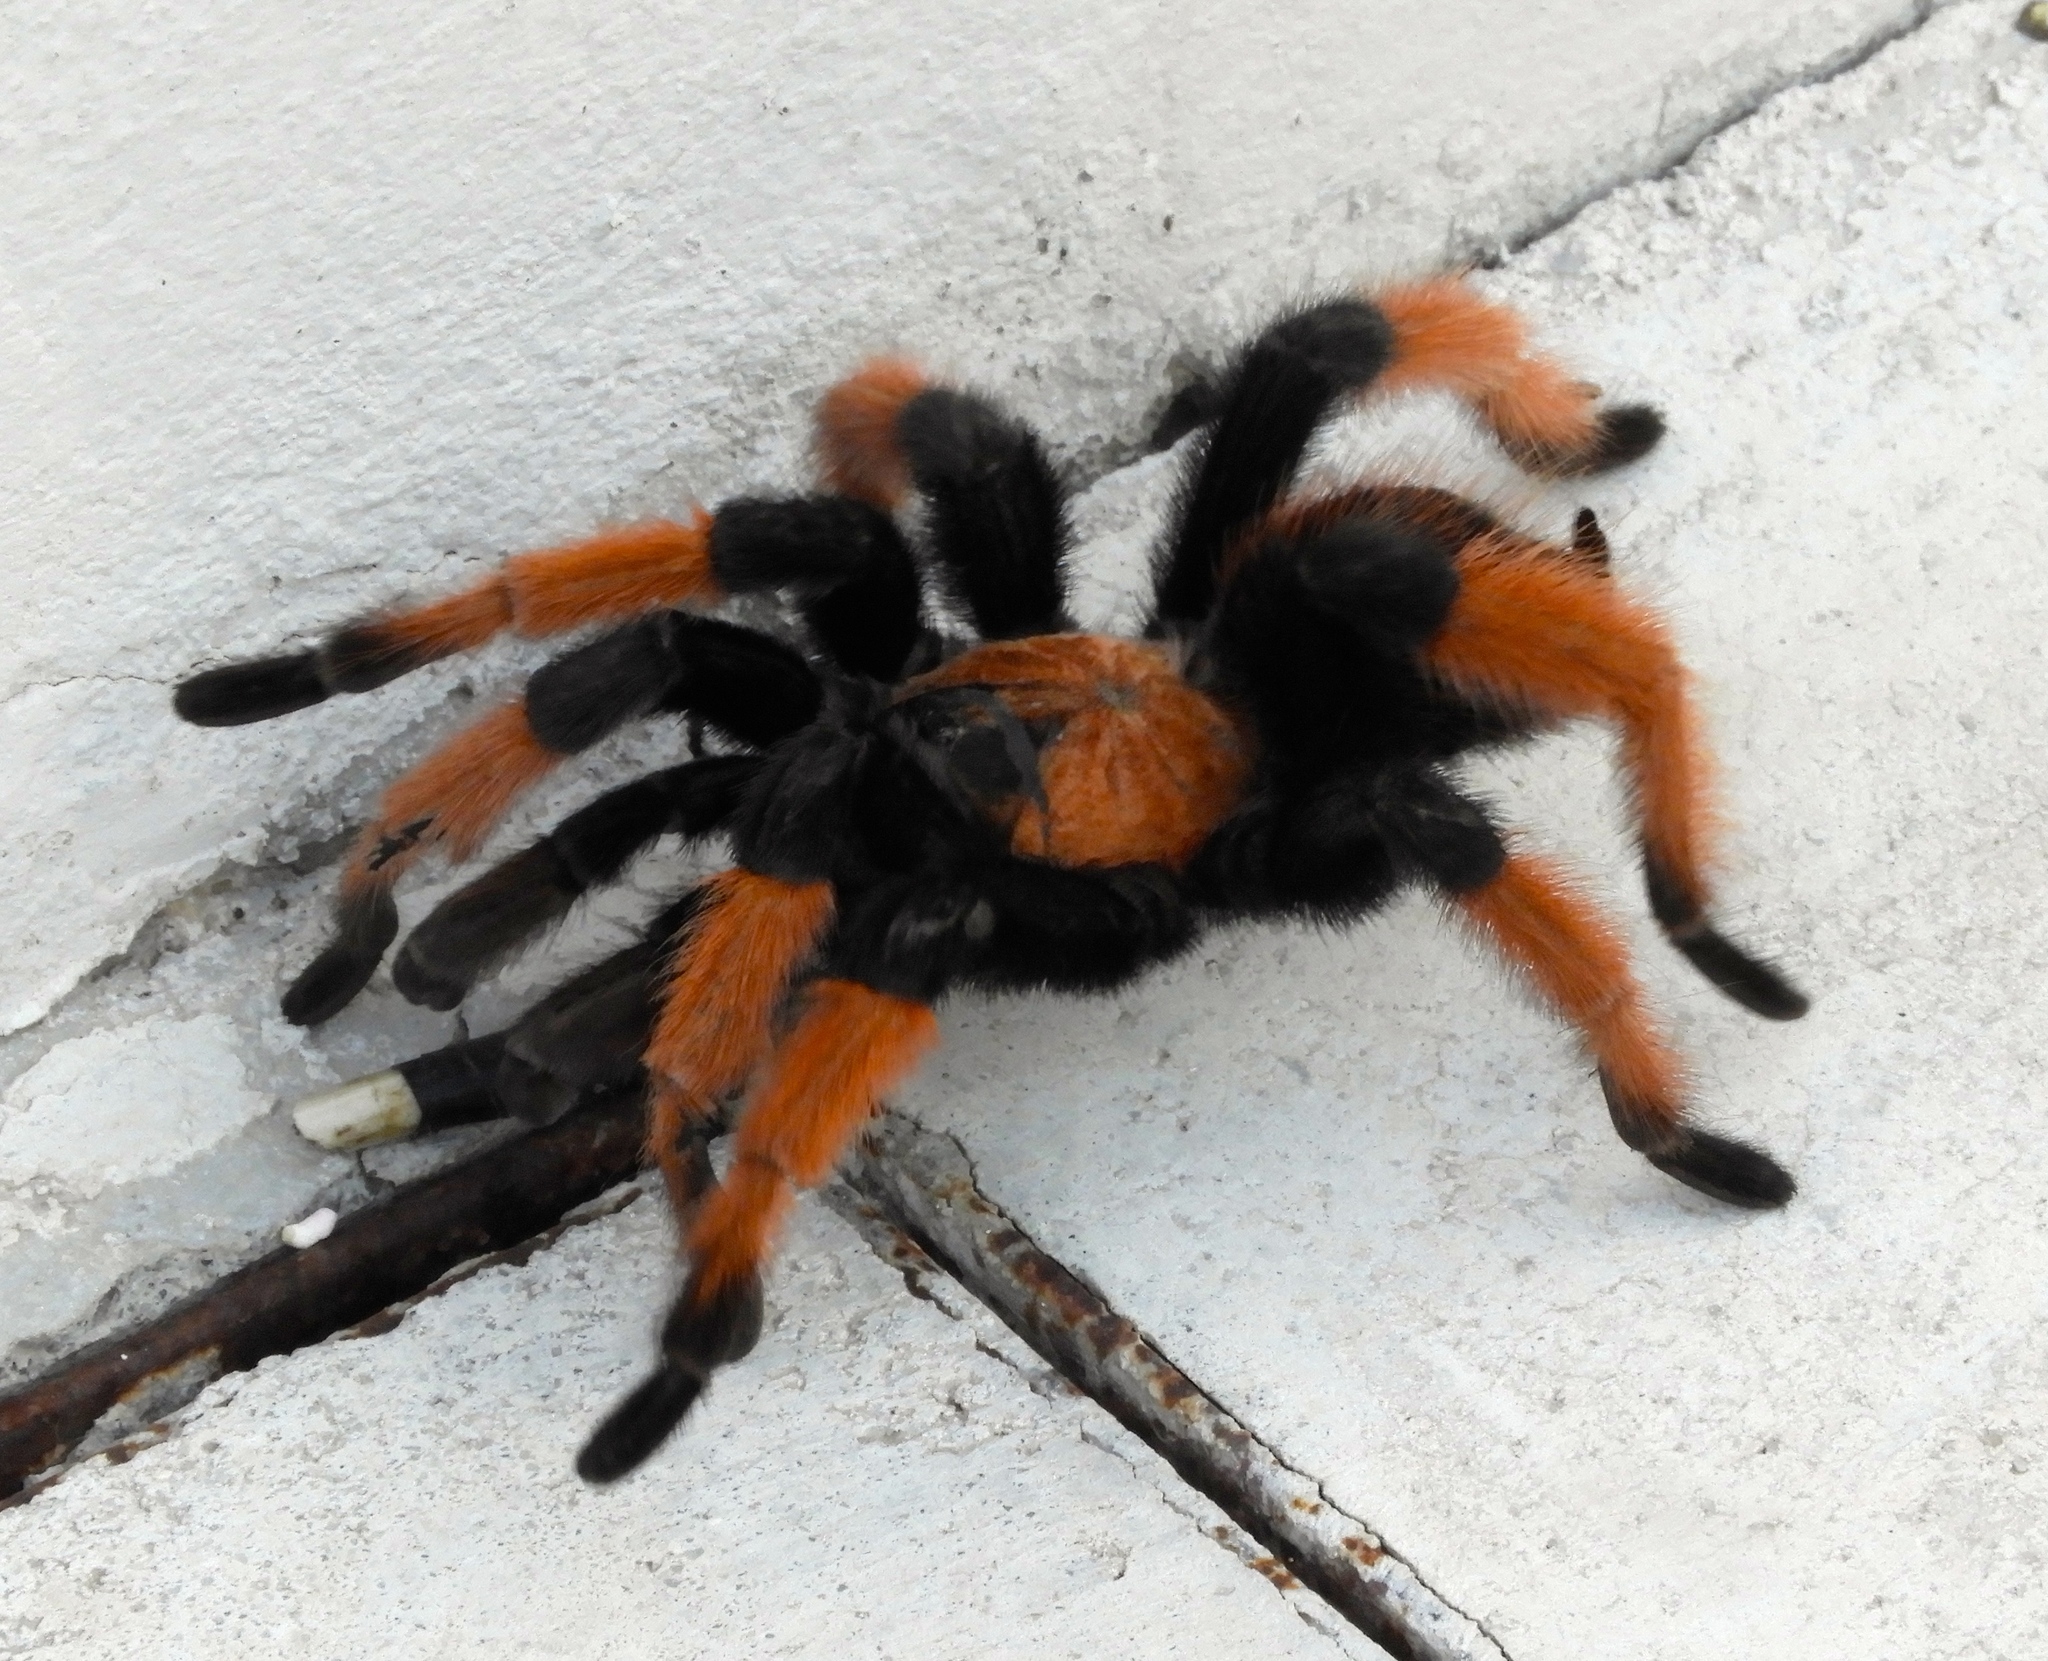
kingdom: Animalia
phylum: Arthropoda
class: Arachnida
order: Araneae
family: Theraphosidae
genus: Brachypelma
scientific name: Brachypelma emilia
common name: Mexican redleg
